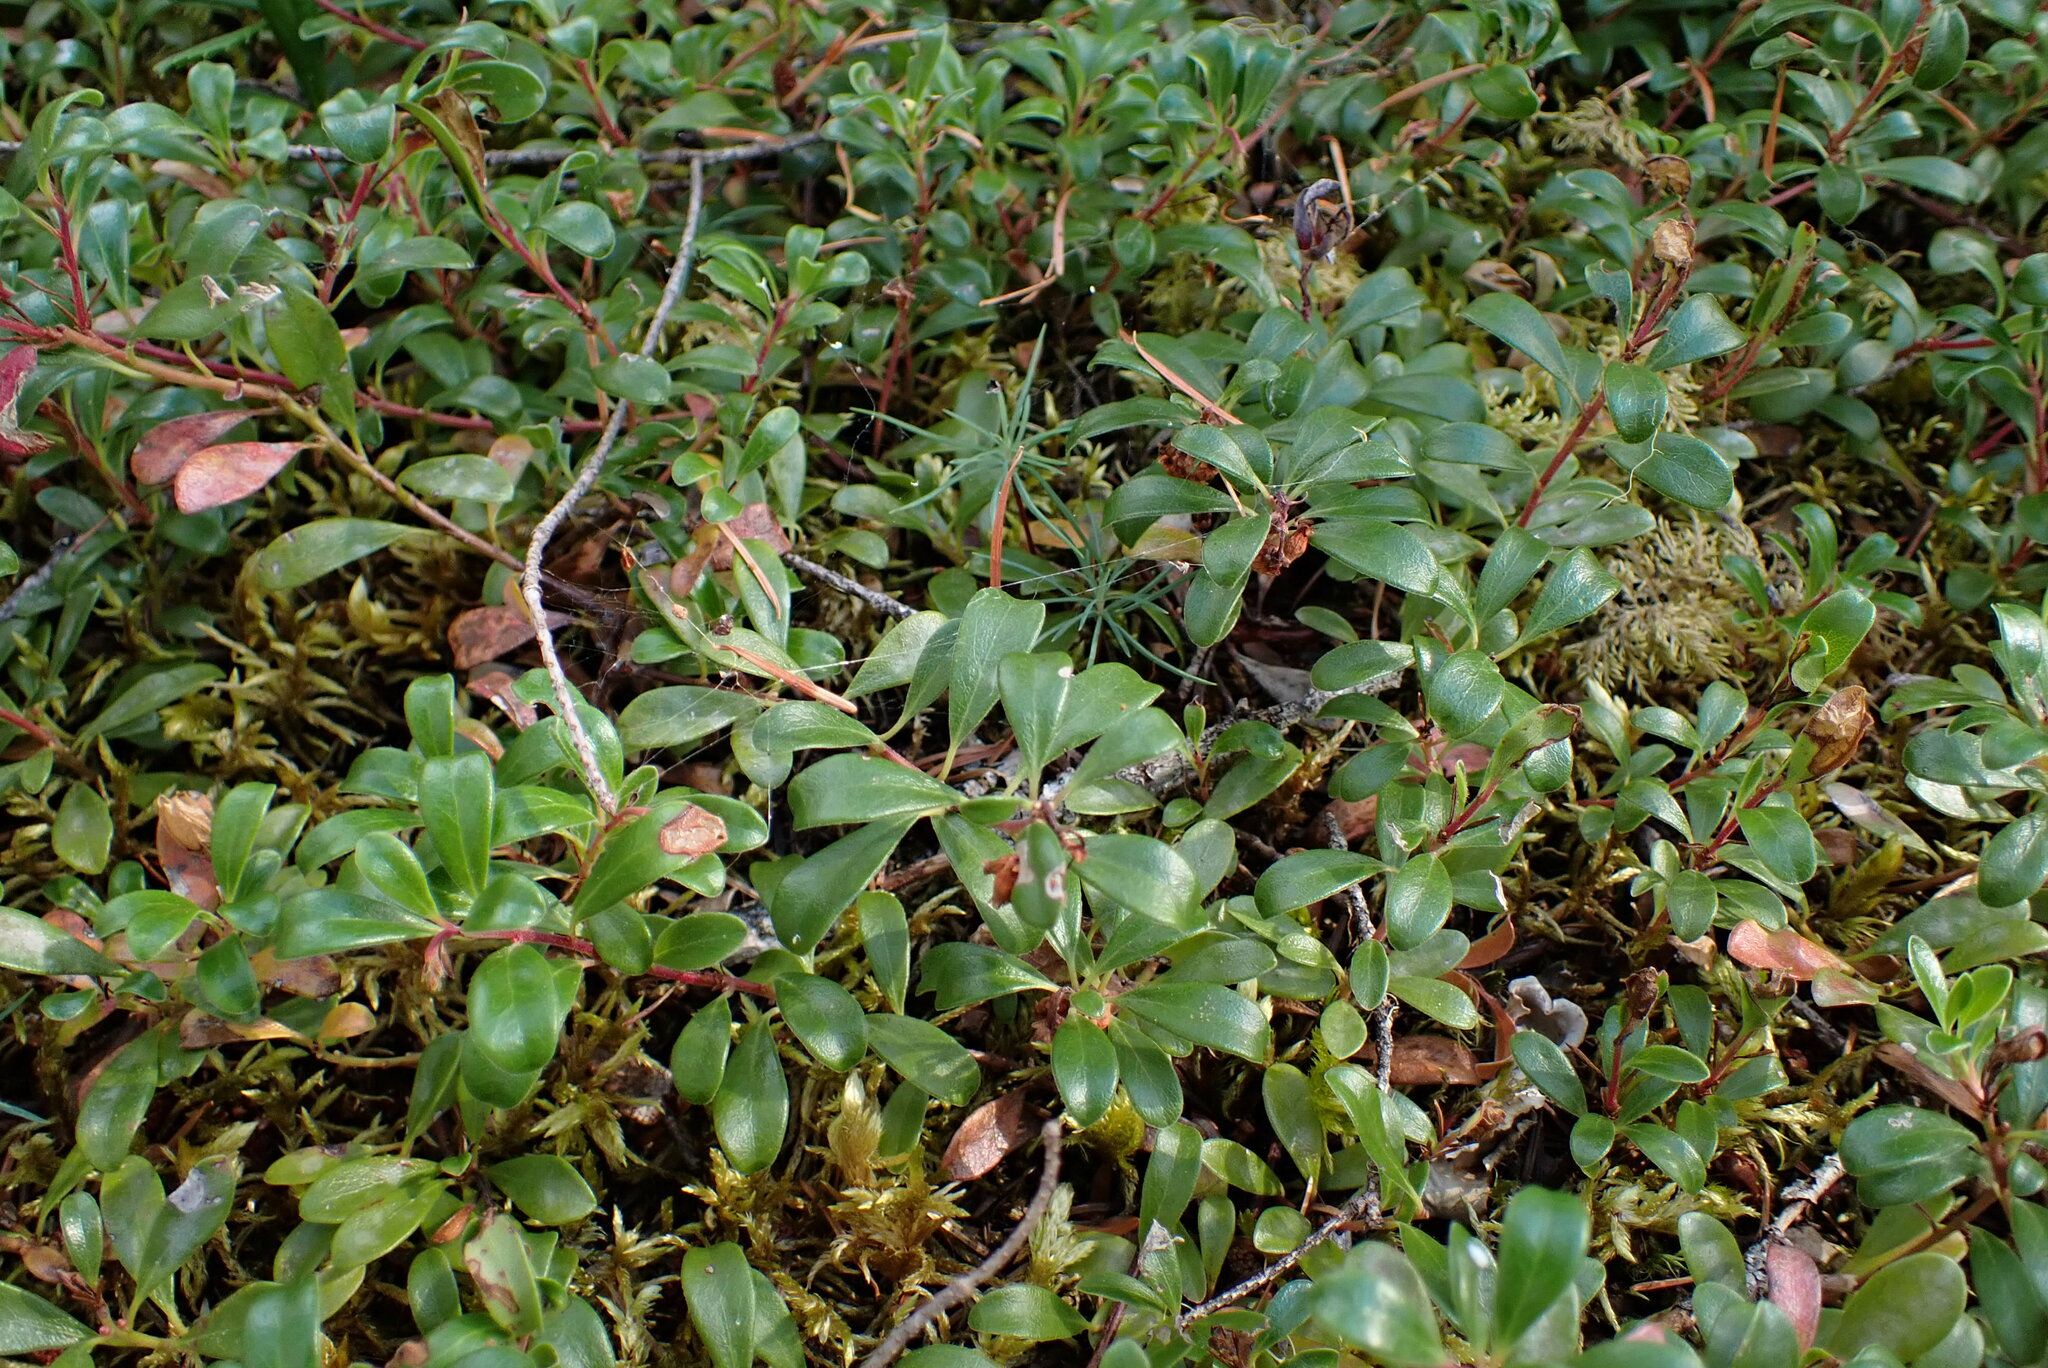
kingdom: Plantae
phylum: Tracheophyta
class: Magnoliopsida
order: Ericales
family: Ericaceae
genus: Arctostaphylos
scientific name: Arctostaphylos uva-ursi
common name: Bearberry
